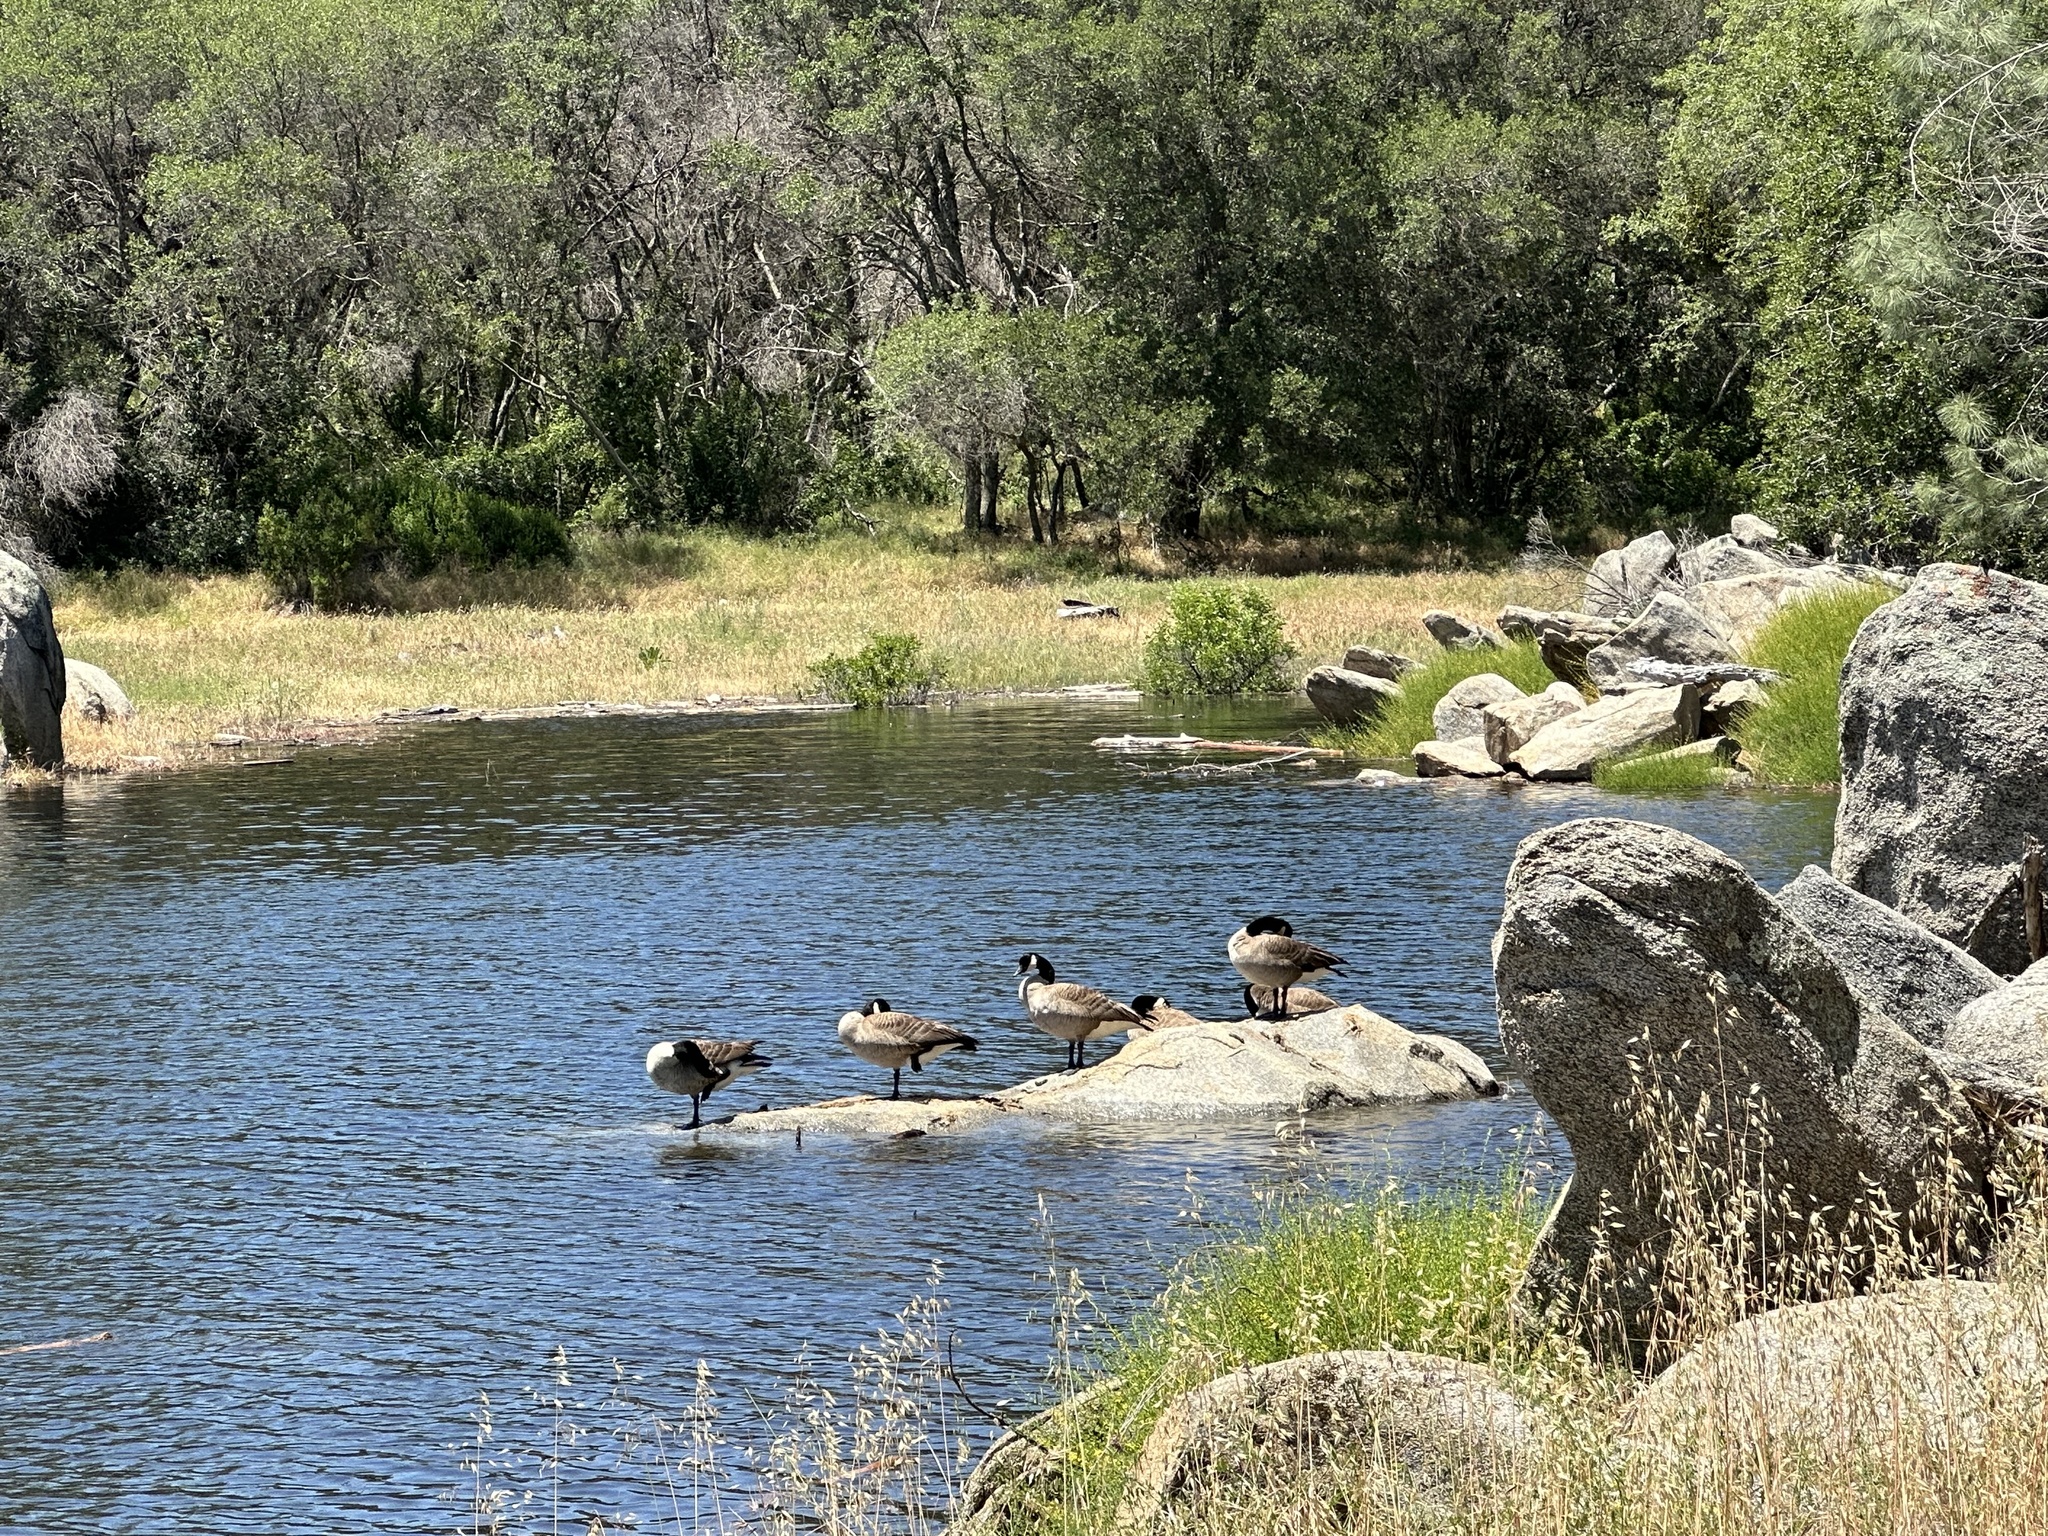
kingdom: Animalia
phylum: Chordata
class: Aves
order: Anseriformes
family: Anatidae
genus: Branta
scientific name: Branta canadensis
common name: Canada goose
